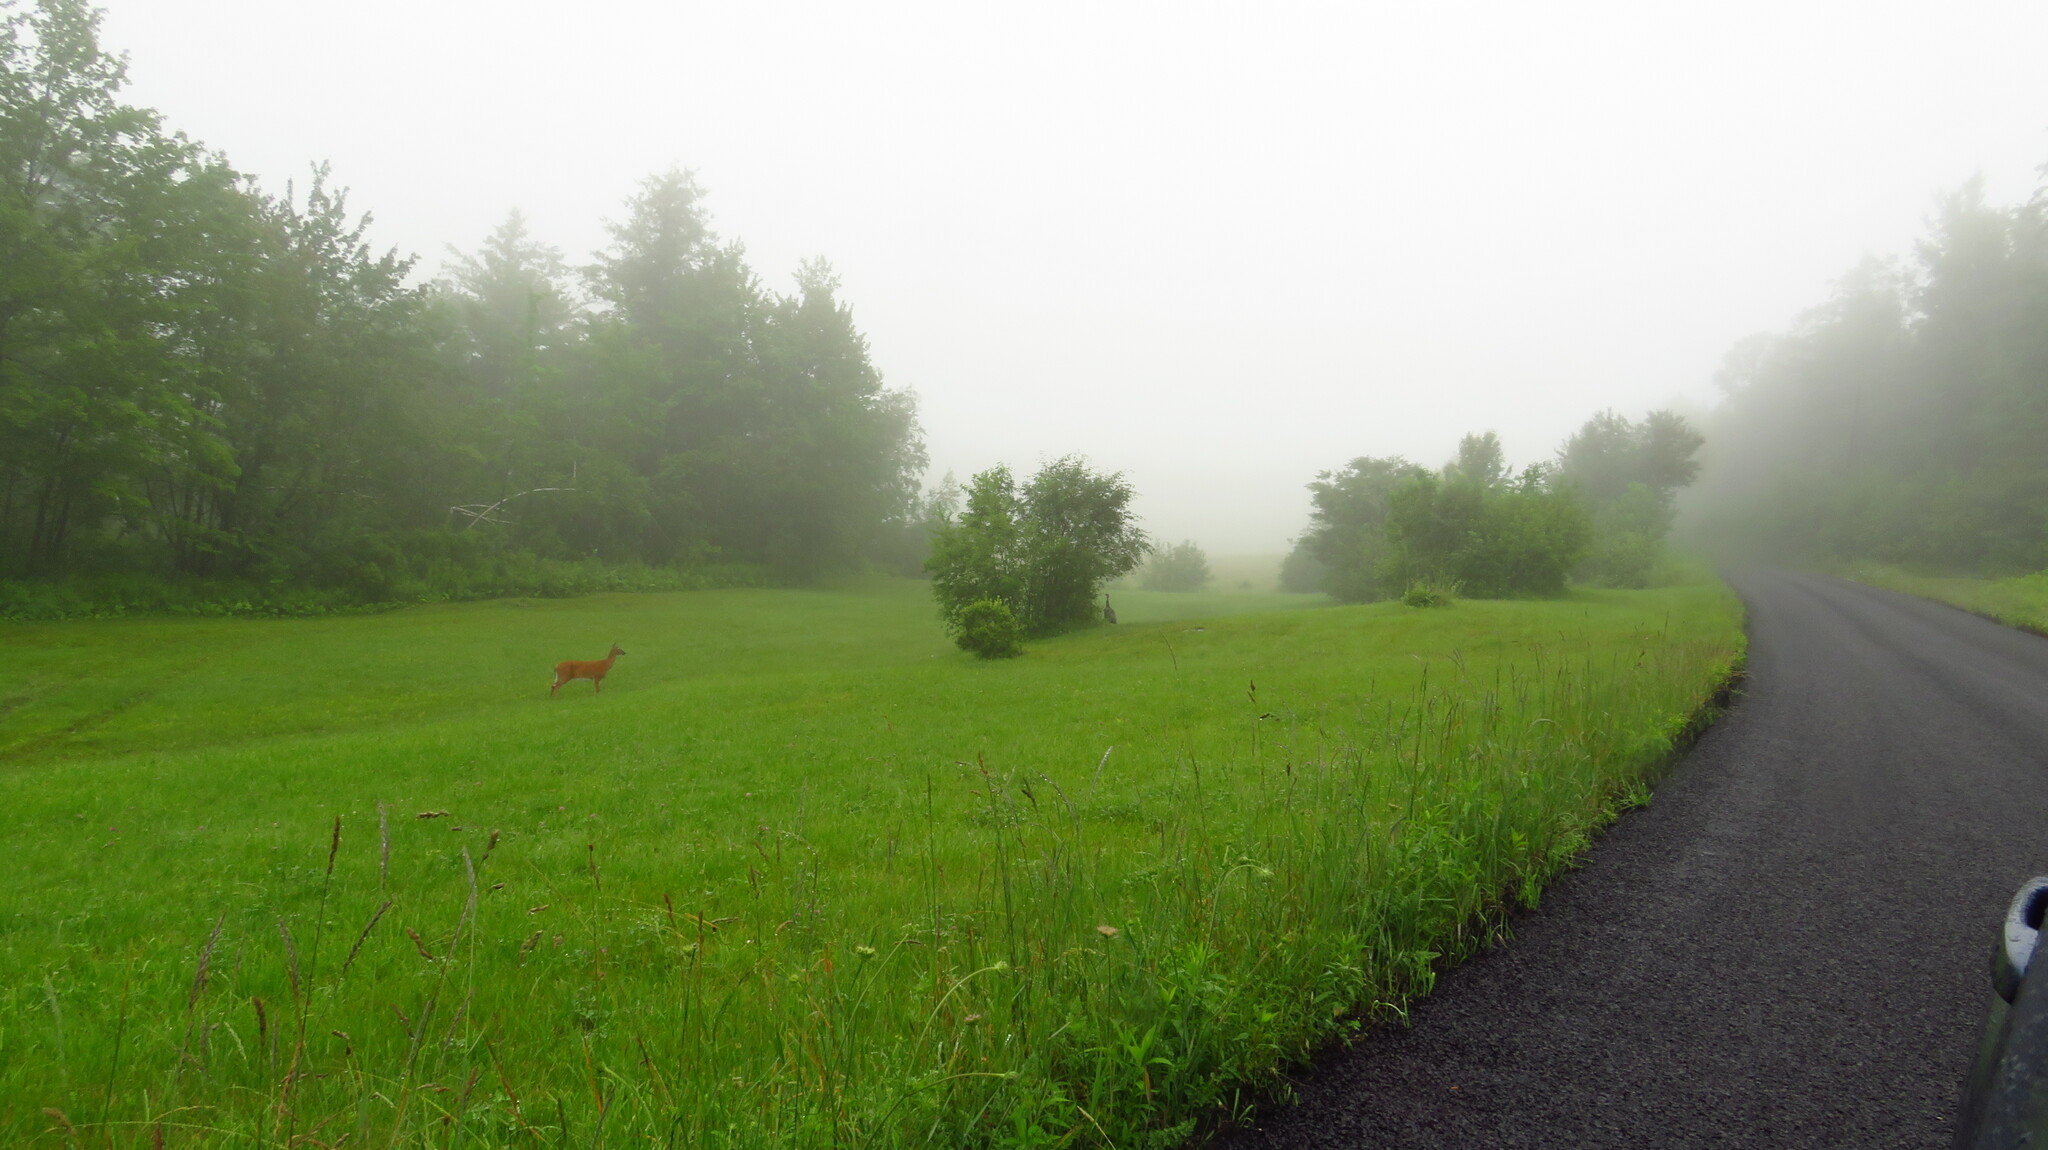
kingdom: Animalia
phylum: Chordata
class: Aves
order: Galliformes
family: Phasianidae
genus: Meleagris
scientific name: Meleagris gallopavo
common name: Wild turkey
